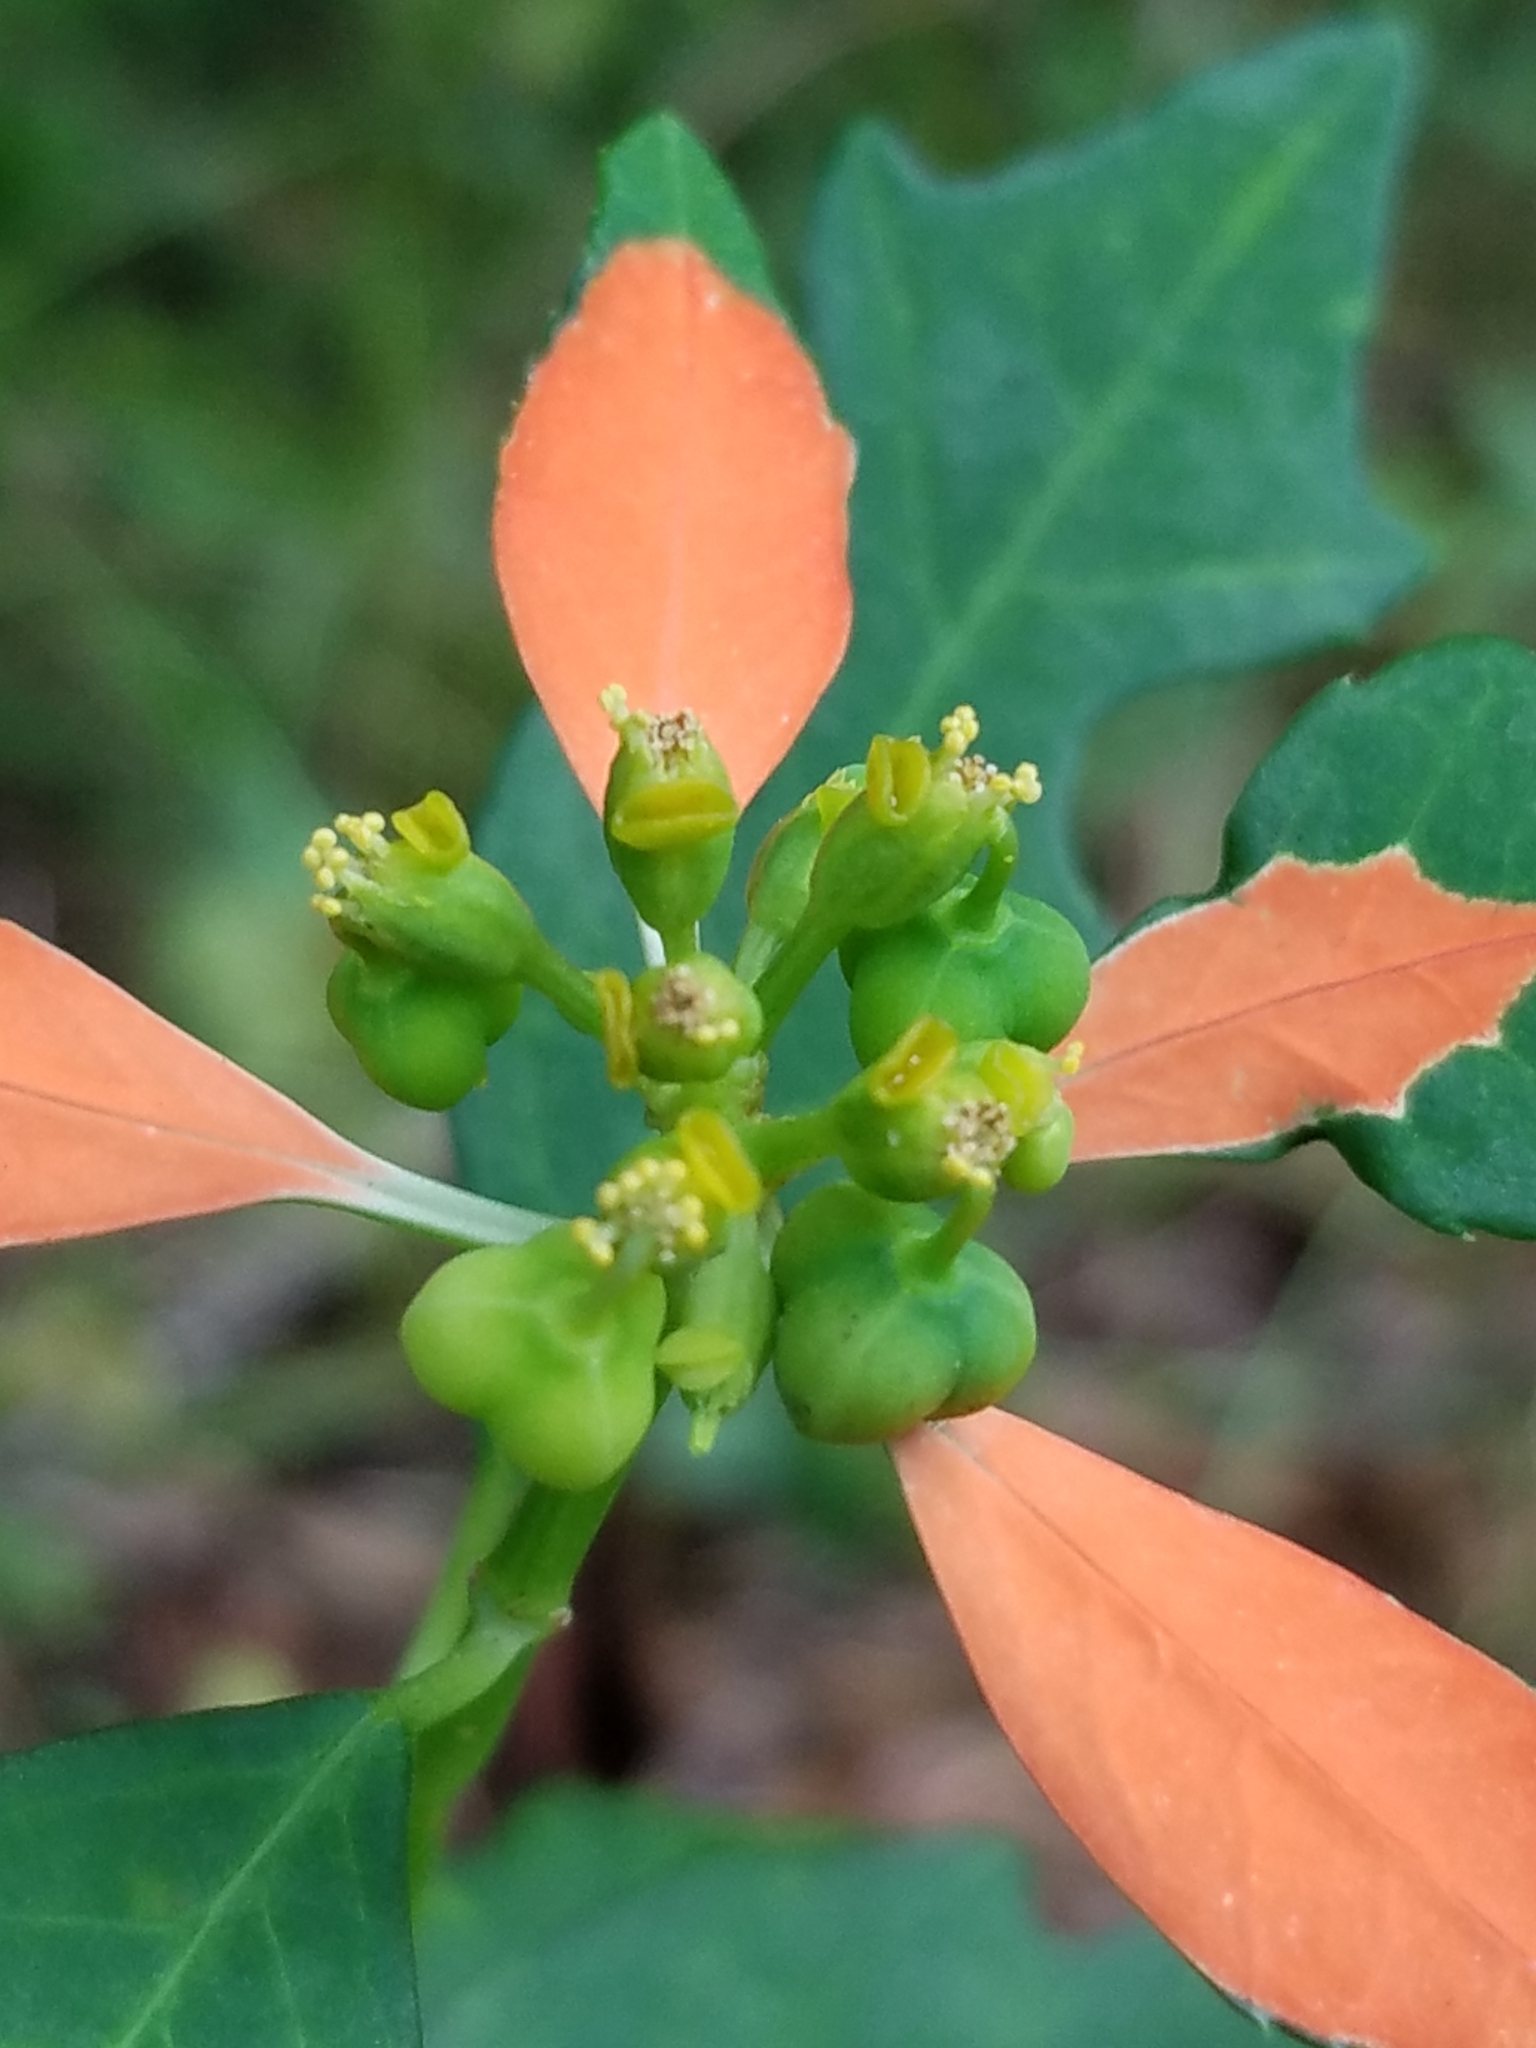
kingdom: Plantae
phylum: Tracheophyta
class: Magnoliopsida
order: Malpighiales
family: Euphorbiaceae
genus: Euphorbia
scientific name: Euphorbia heterophylla
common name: Mexican fireplant
